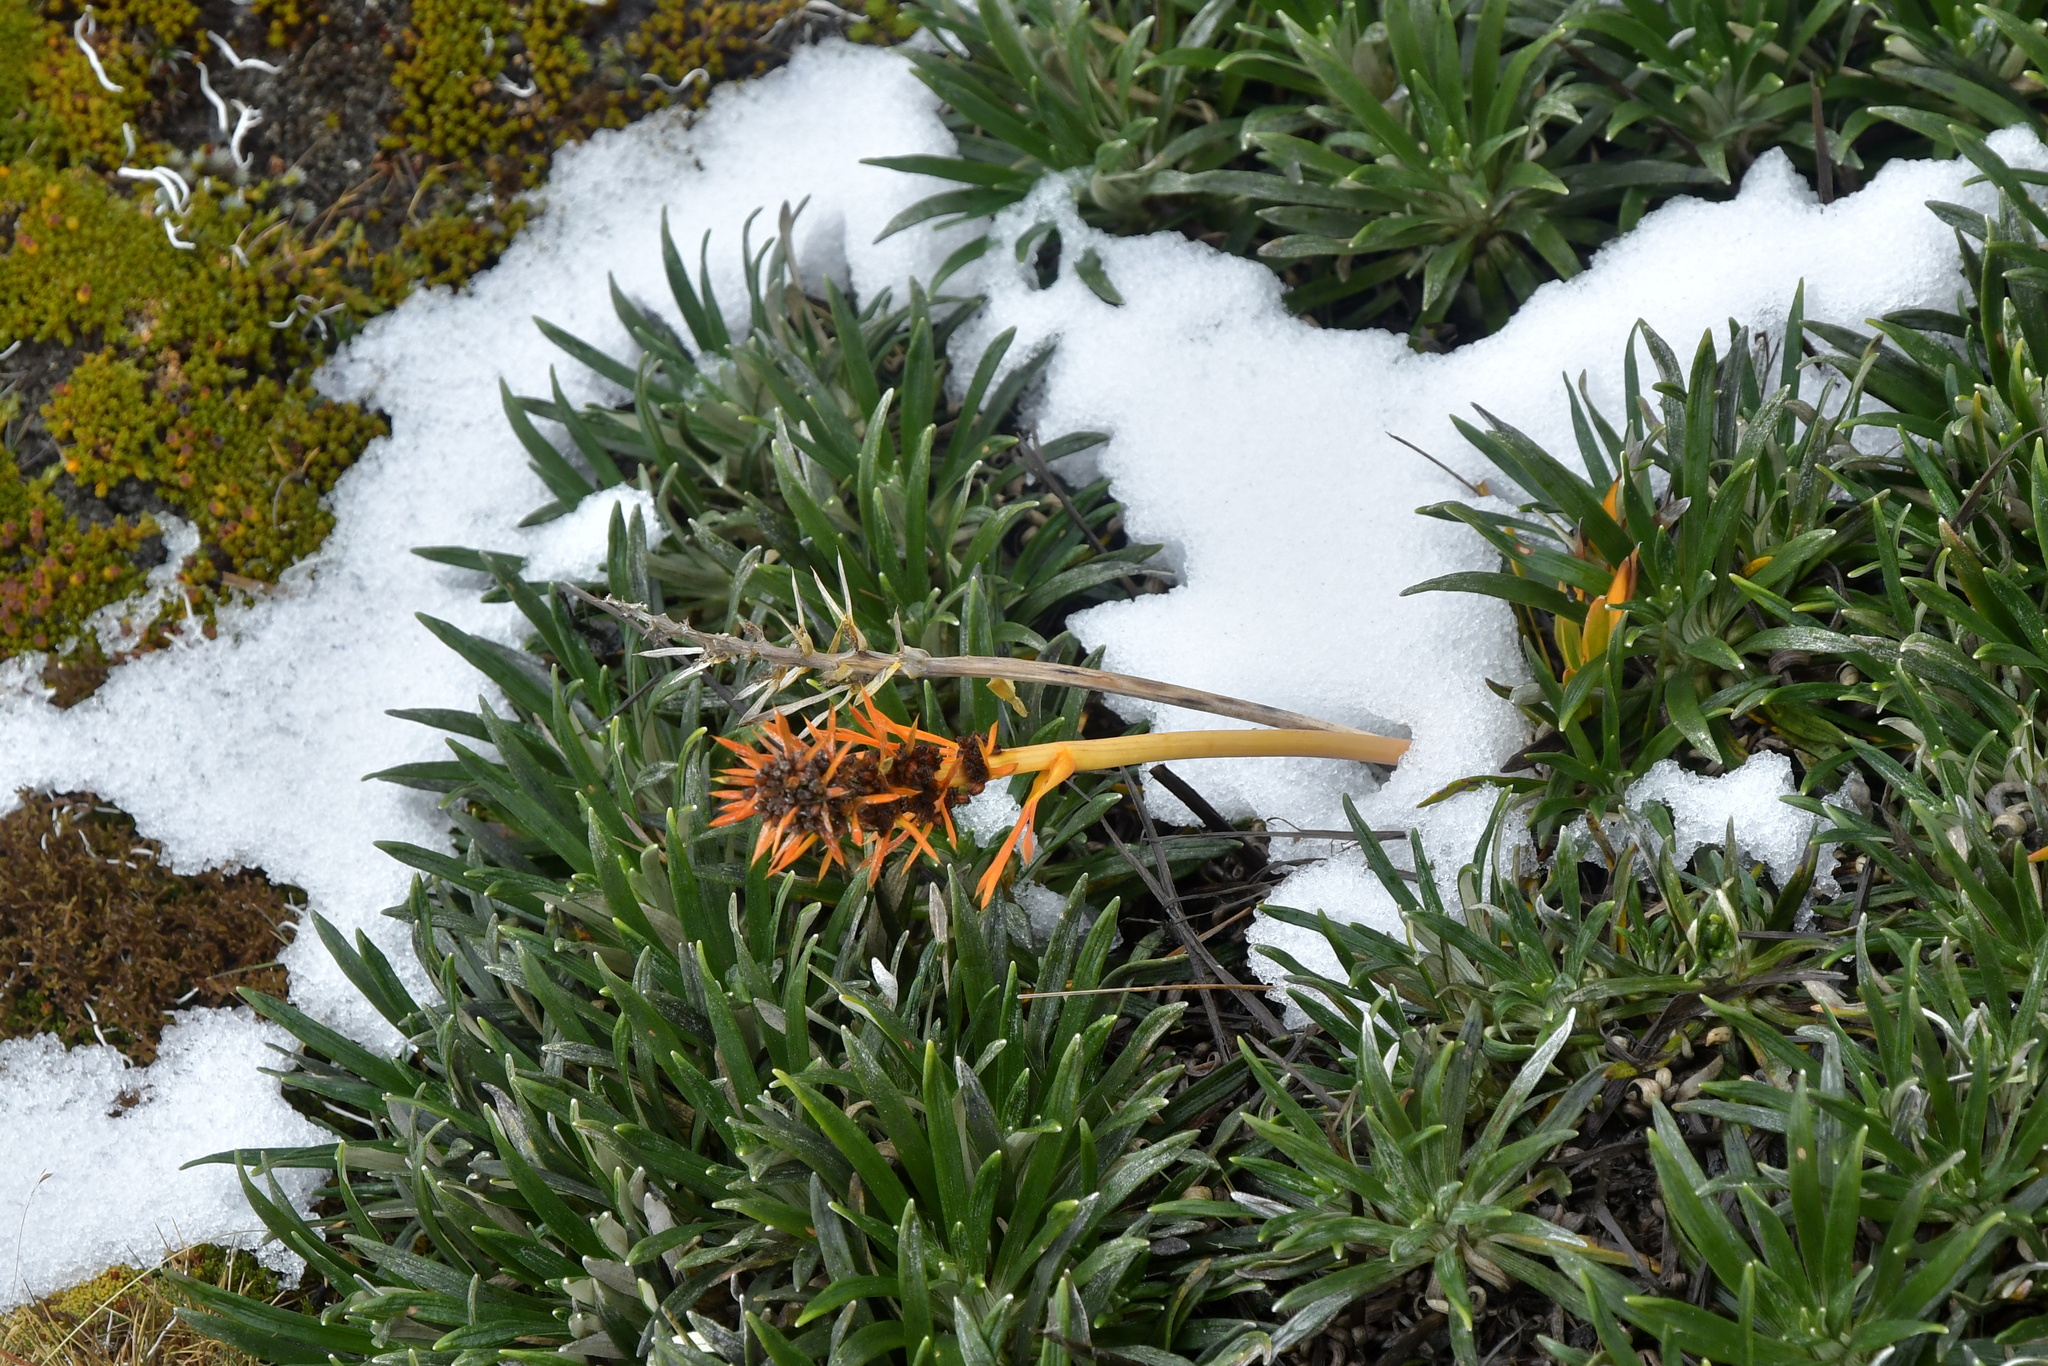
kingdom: Plantae
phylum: Tracheophyta
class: Magnoliopsida
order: Apiales
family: Apiaceae
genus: Aciphylla
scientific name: Aciphylla verticillata
